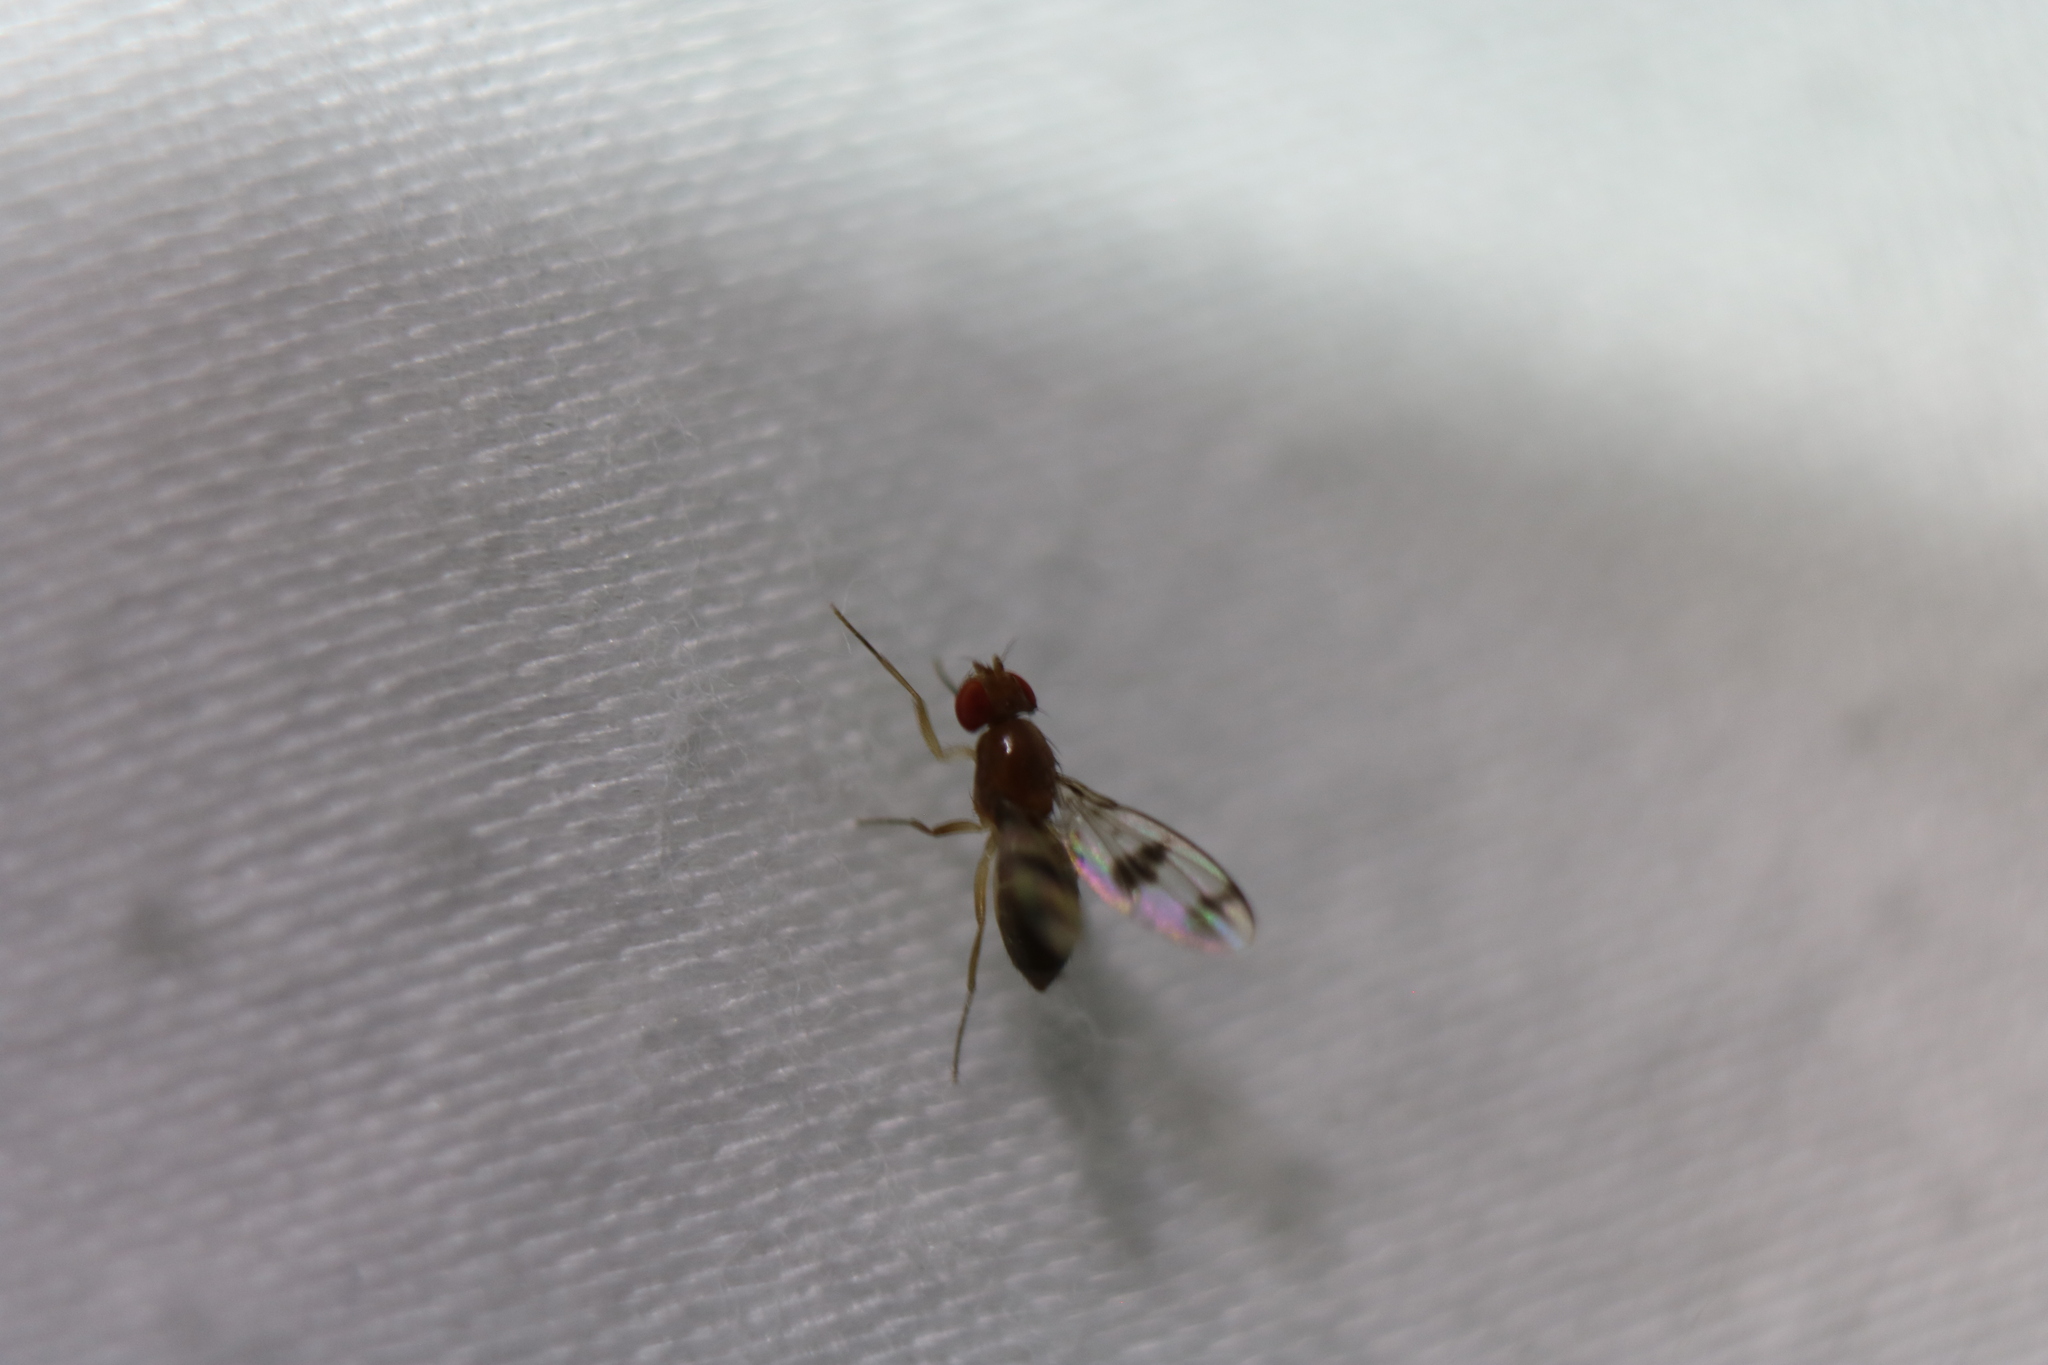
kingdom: Animalia
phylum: Arthropoda
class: Insecta
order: Diptera
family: Drosophilidae
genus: Chymomyza
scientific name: Chymomyza amoena
